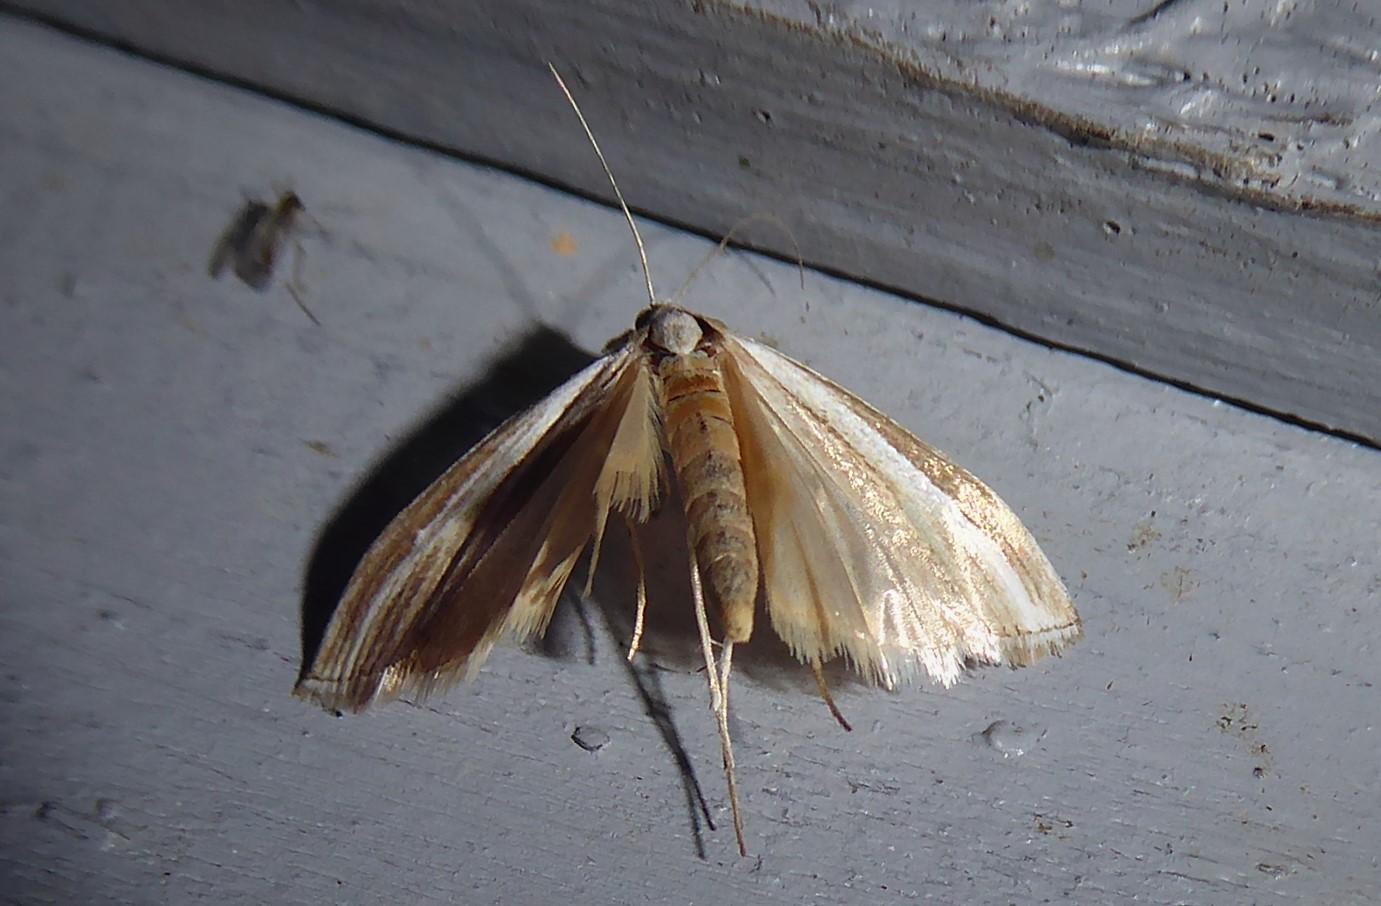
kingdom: Animalia
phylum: Arthropoda
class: Insecta
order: Lepidoptera
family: Crambidae
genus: Orocrambus
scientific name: Orocrambus vittellus
